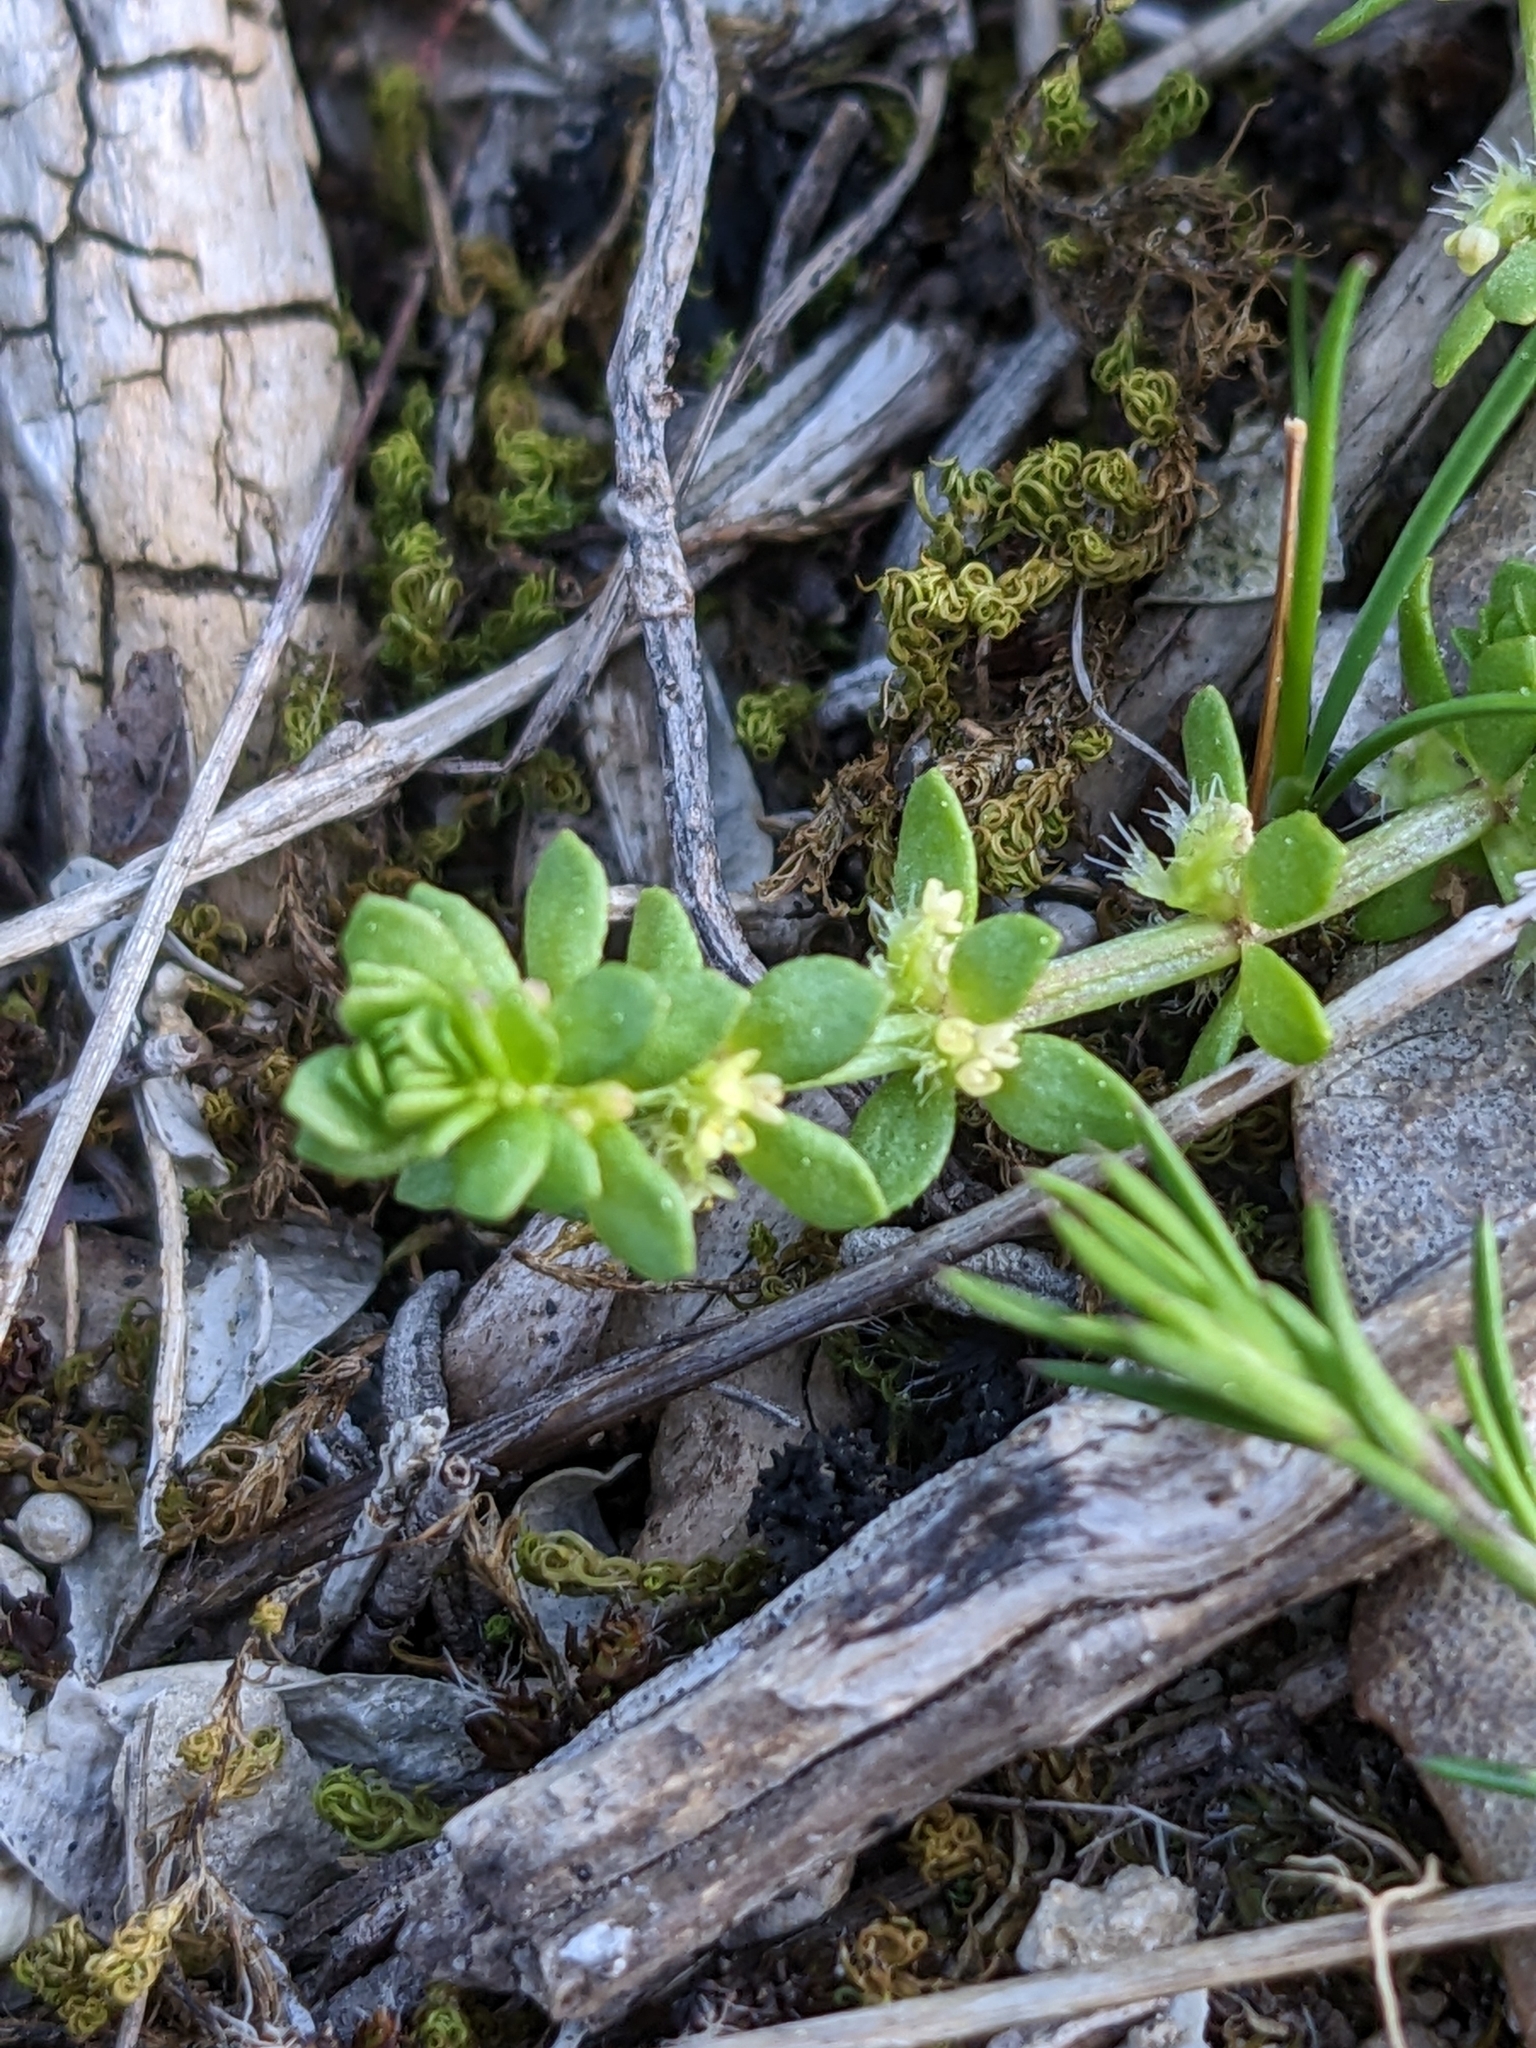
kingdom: Plantae
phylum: Tracheophyta
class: Magnoliopsida
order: Gentianales
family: Rubiaceae
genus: Valantia
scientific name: Valantia muralis
